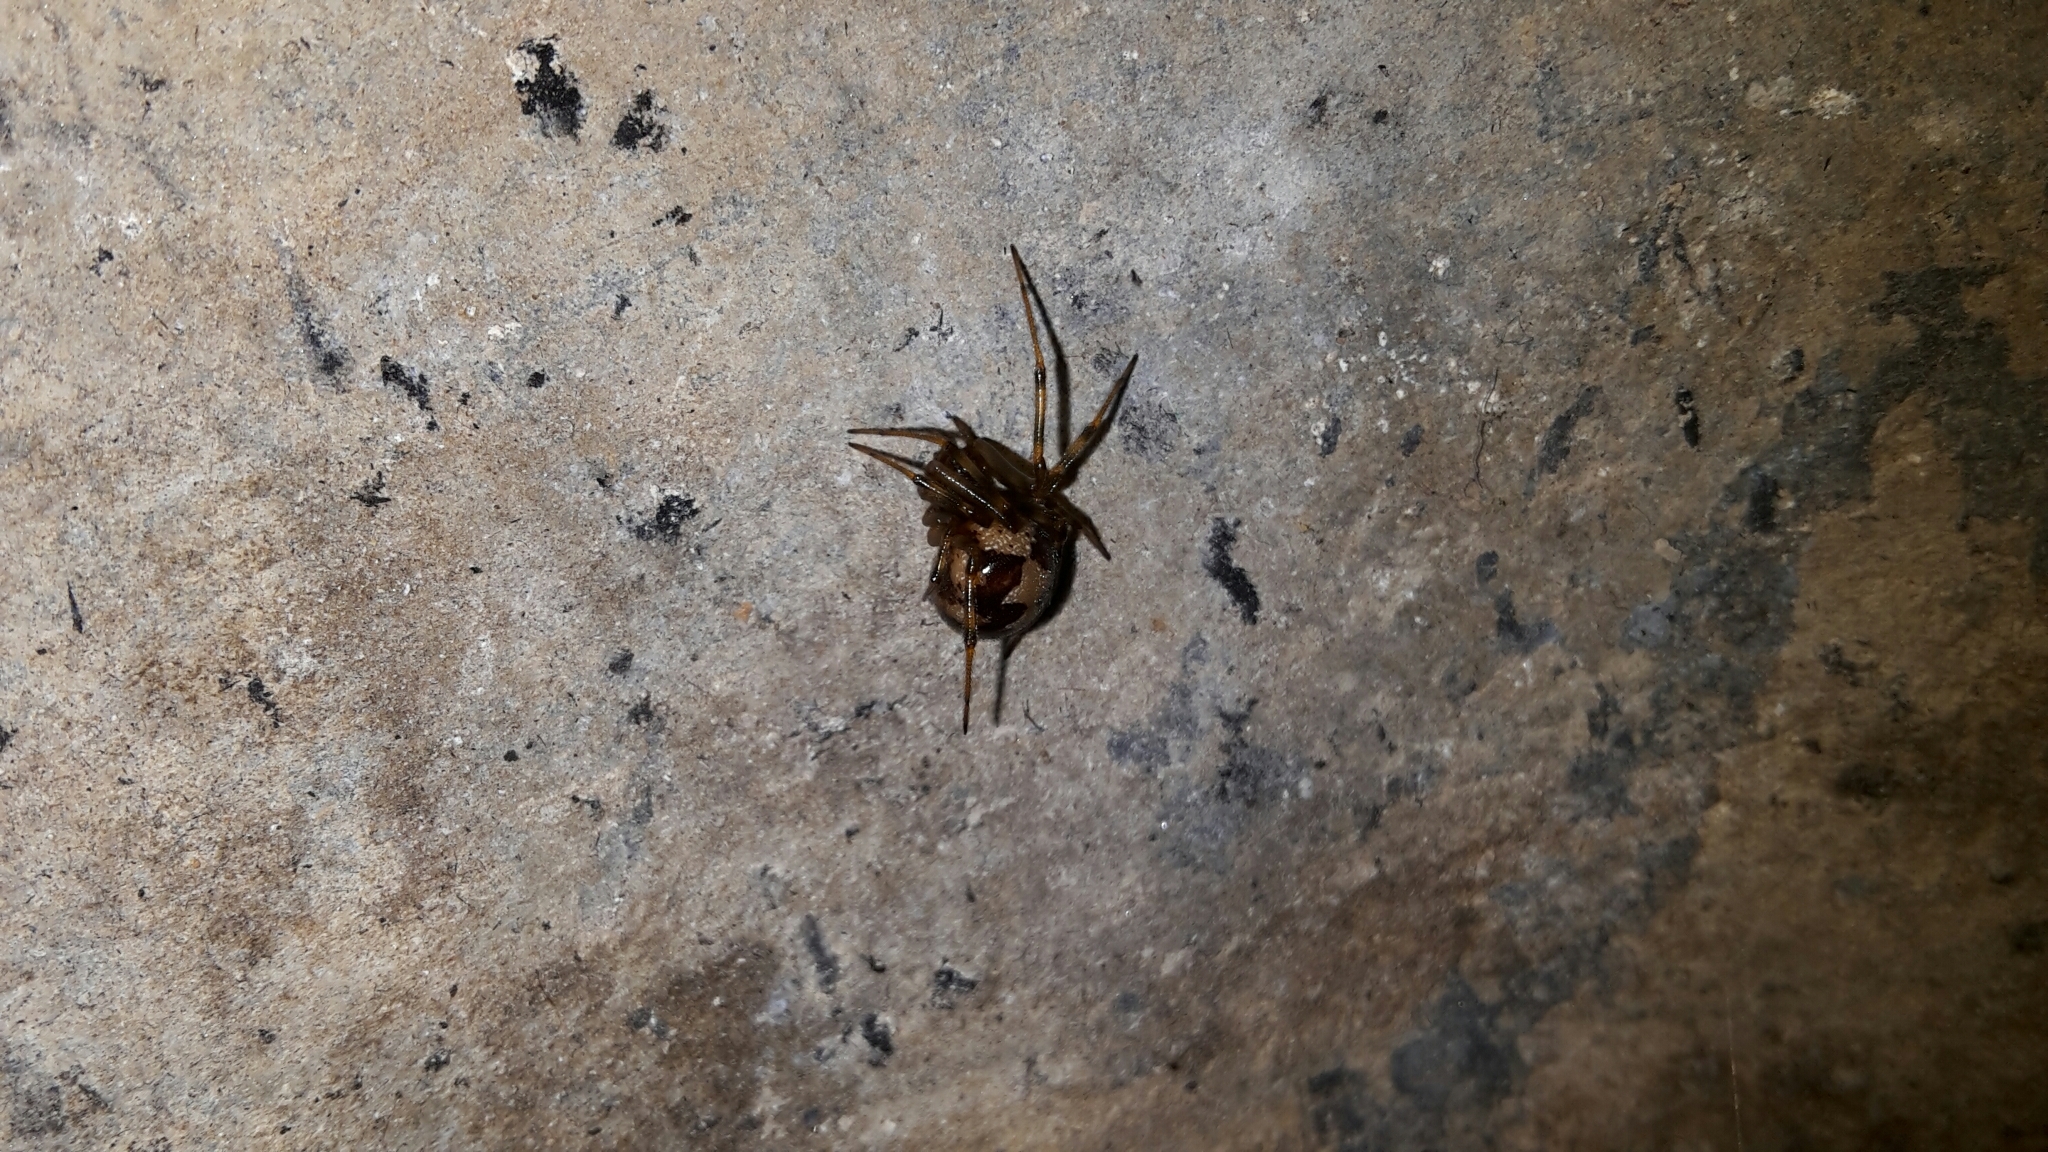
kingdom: Animalia
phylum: Arthropoda
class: Arachnida
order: Araneae
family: Theridiidae
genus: Steatoda
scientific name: Steatoda triangulosa
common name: Triangulate bud spider
